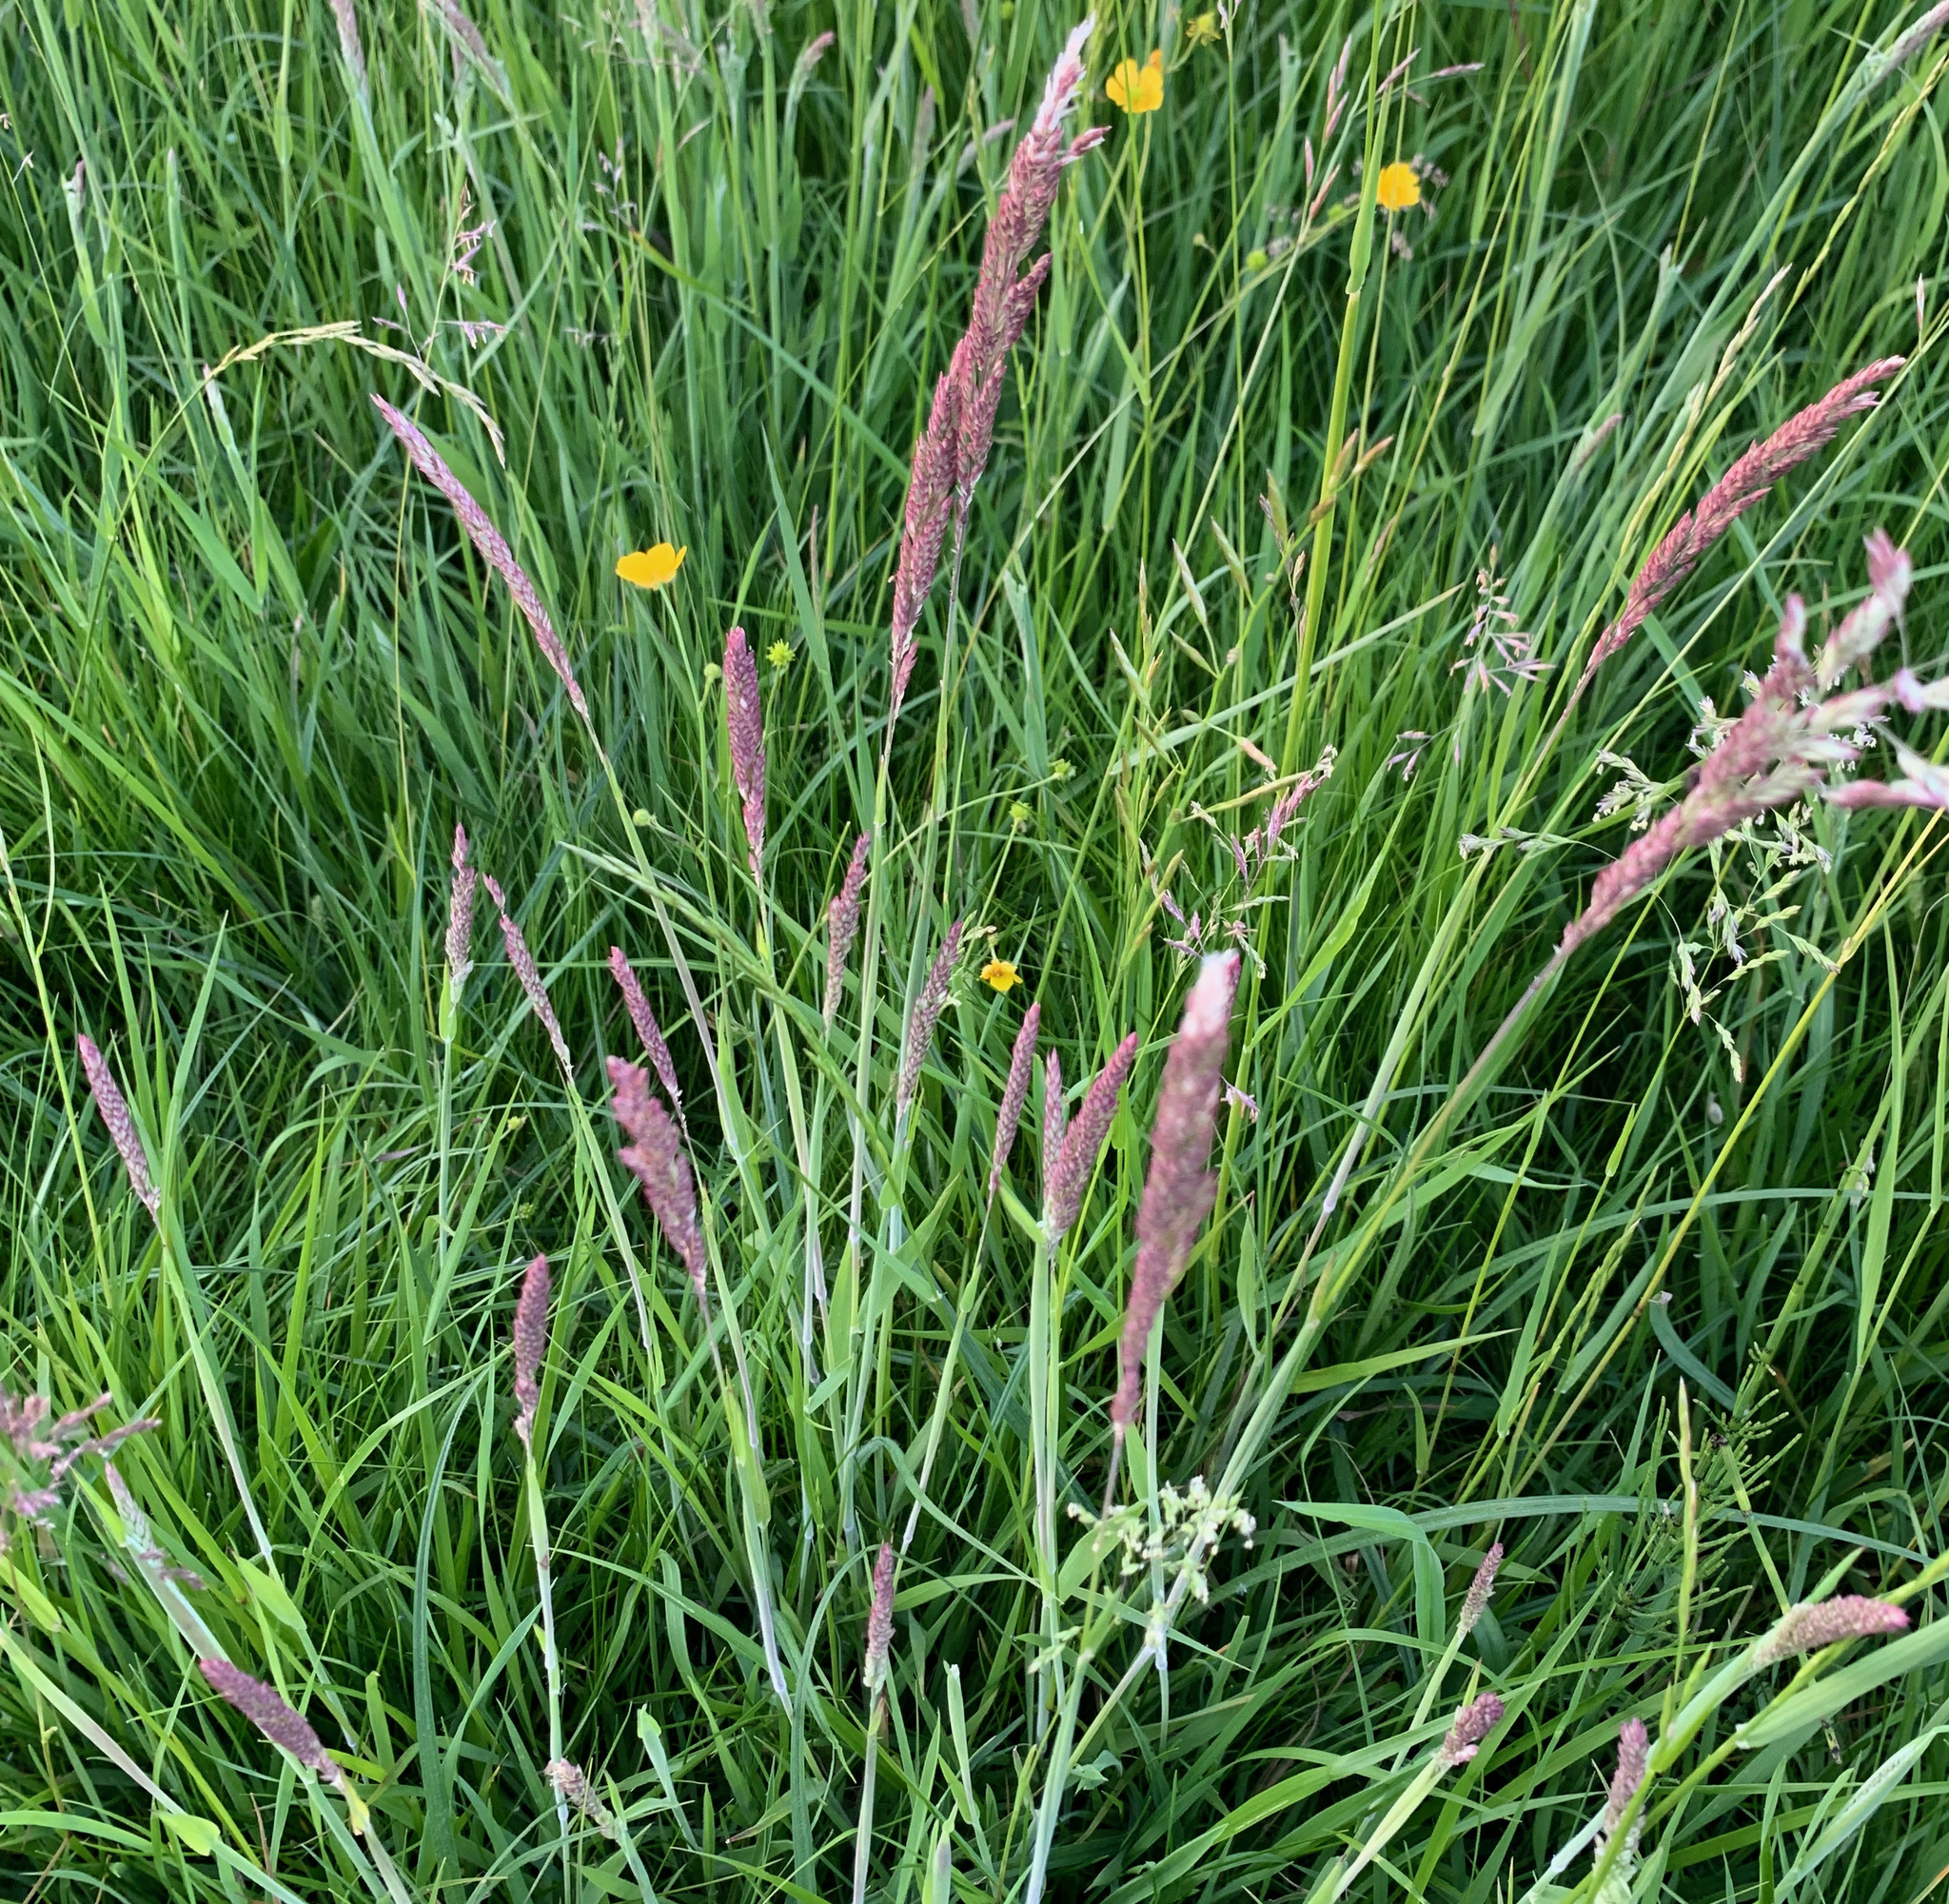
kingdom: Plantae
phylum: Tracheophyta
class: Liliopsida
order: Poales
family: Poaceae
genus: Holcus
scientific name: Holcus lanatus
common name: Yorkshire-fog
